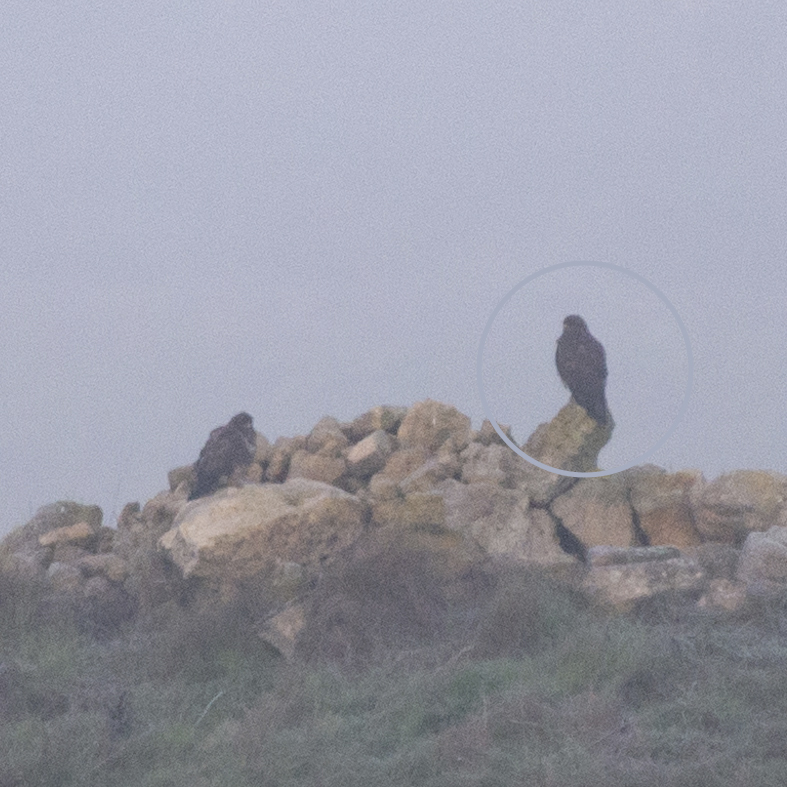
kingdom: Animalia
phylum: Chordata
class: Aves
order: Accipitriformes
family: Accipitridae
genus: Buteo
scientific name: Buteo buteo
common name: Common buzzard
